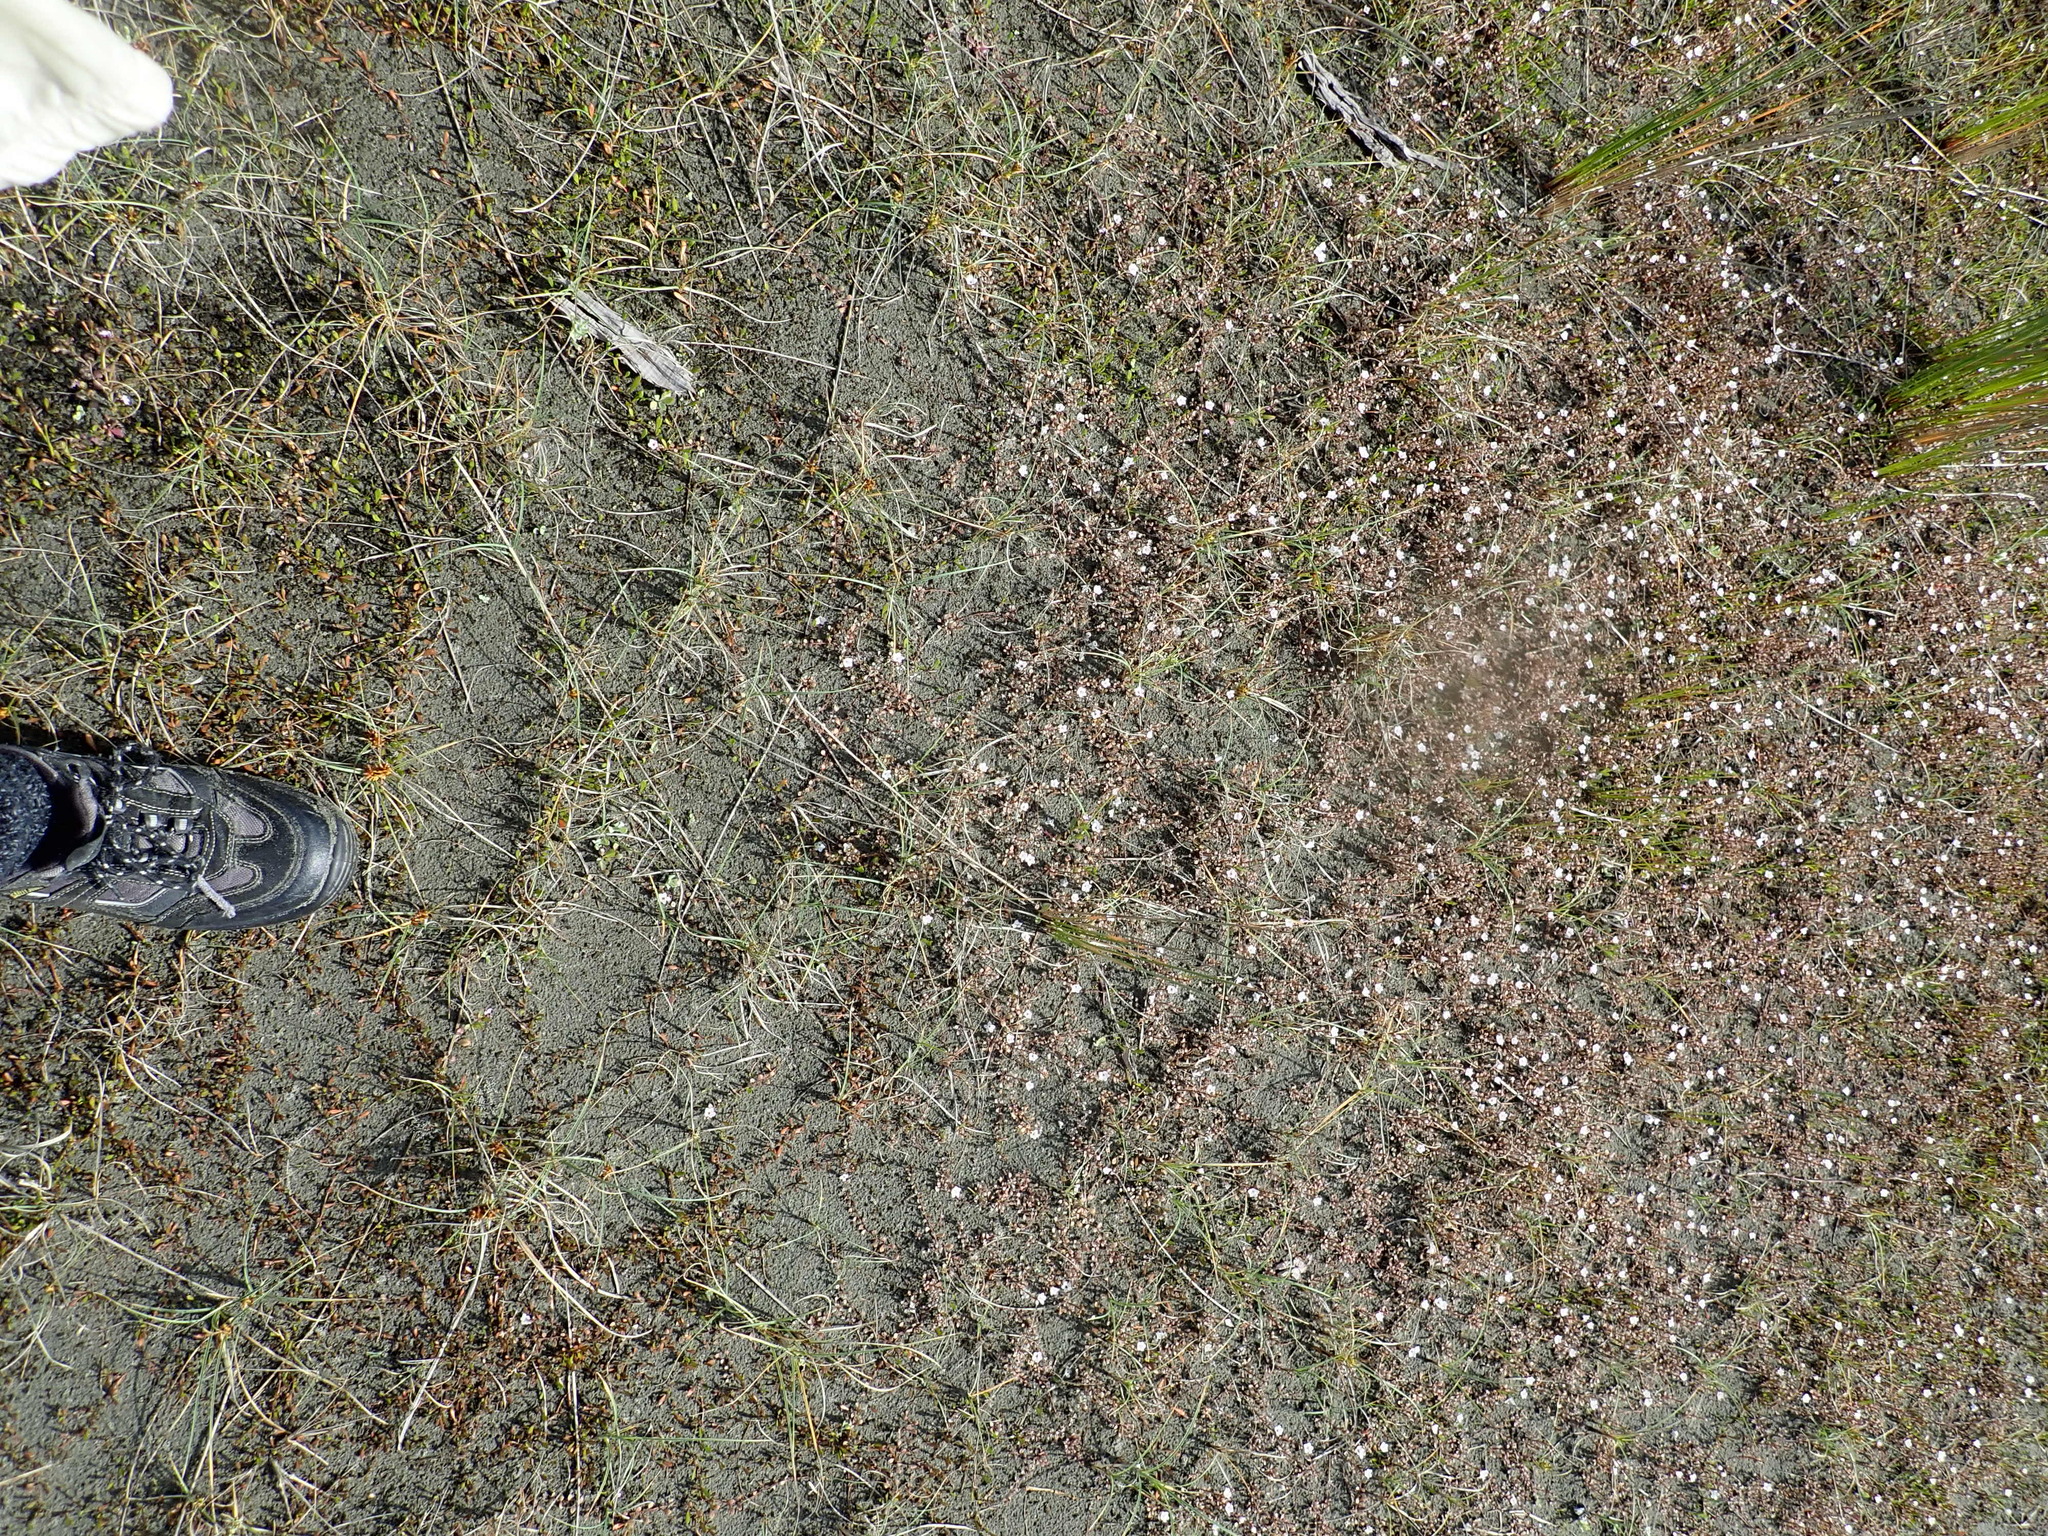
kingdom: Plantae
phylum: Tracheophyta
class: Magnoliopsida
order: Ericales
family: Primulaceae
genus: Samolus
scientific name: Samolus repens
